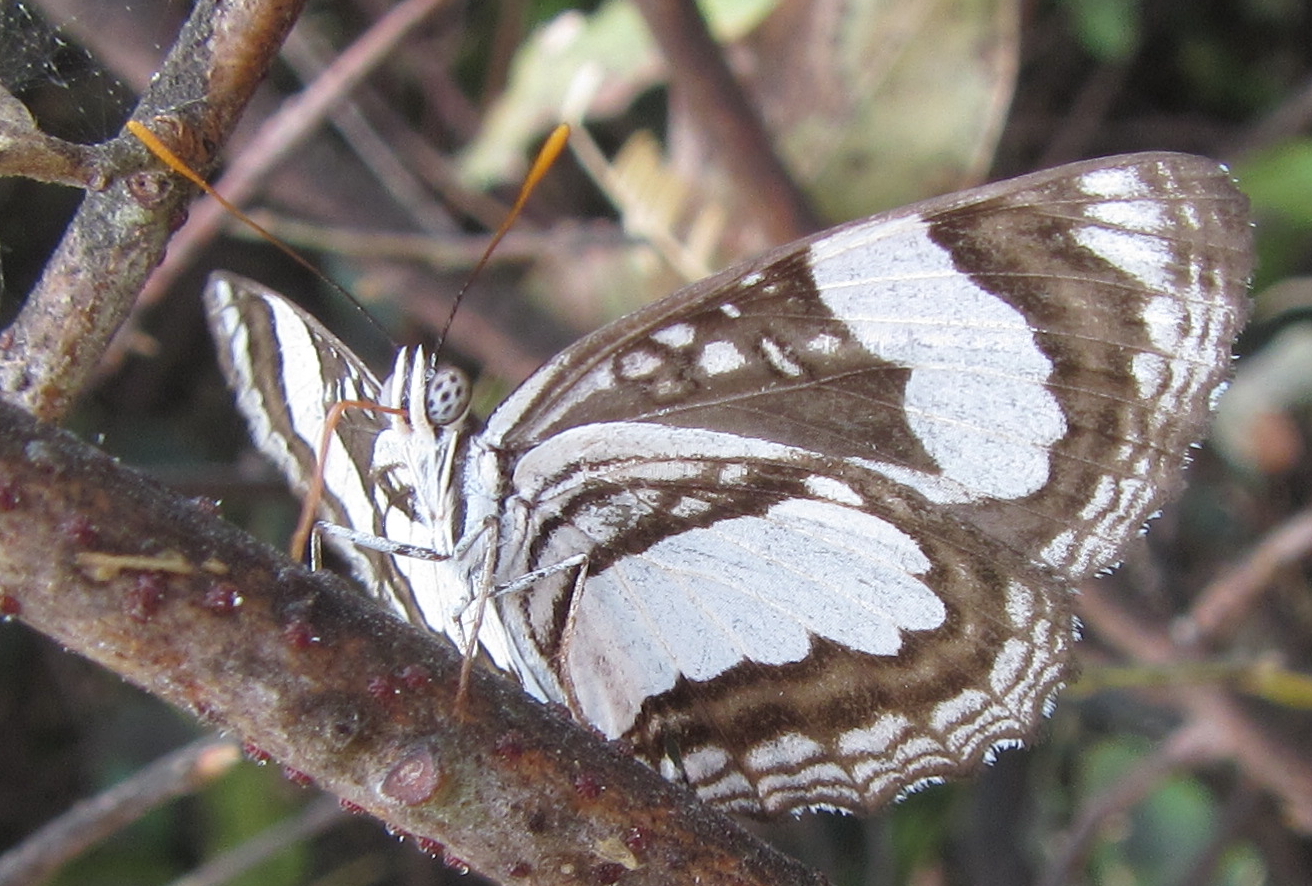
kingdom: Animalia
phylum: Arthropoda
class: Insecta
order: Lepidoptera
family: Nymphalidae
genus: Neptis
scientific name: Neptis jordani
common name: Jordan's sailor
